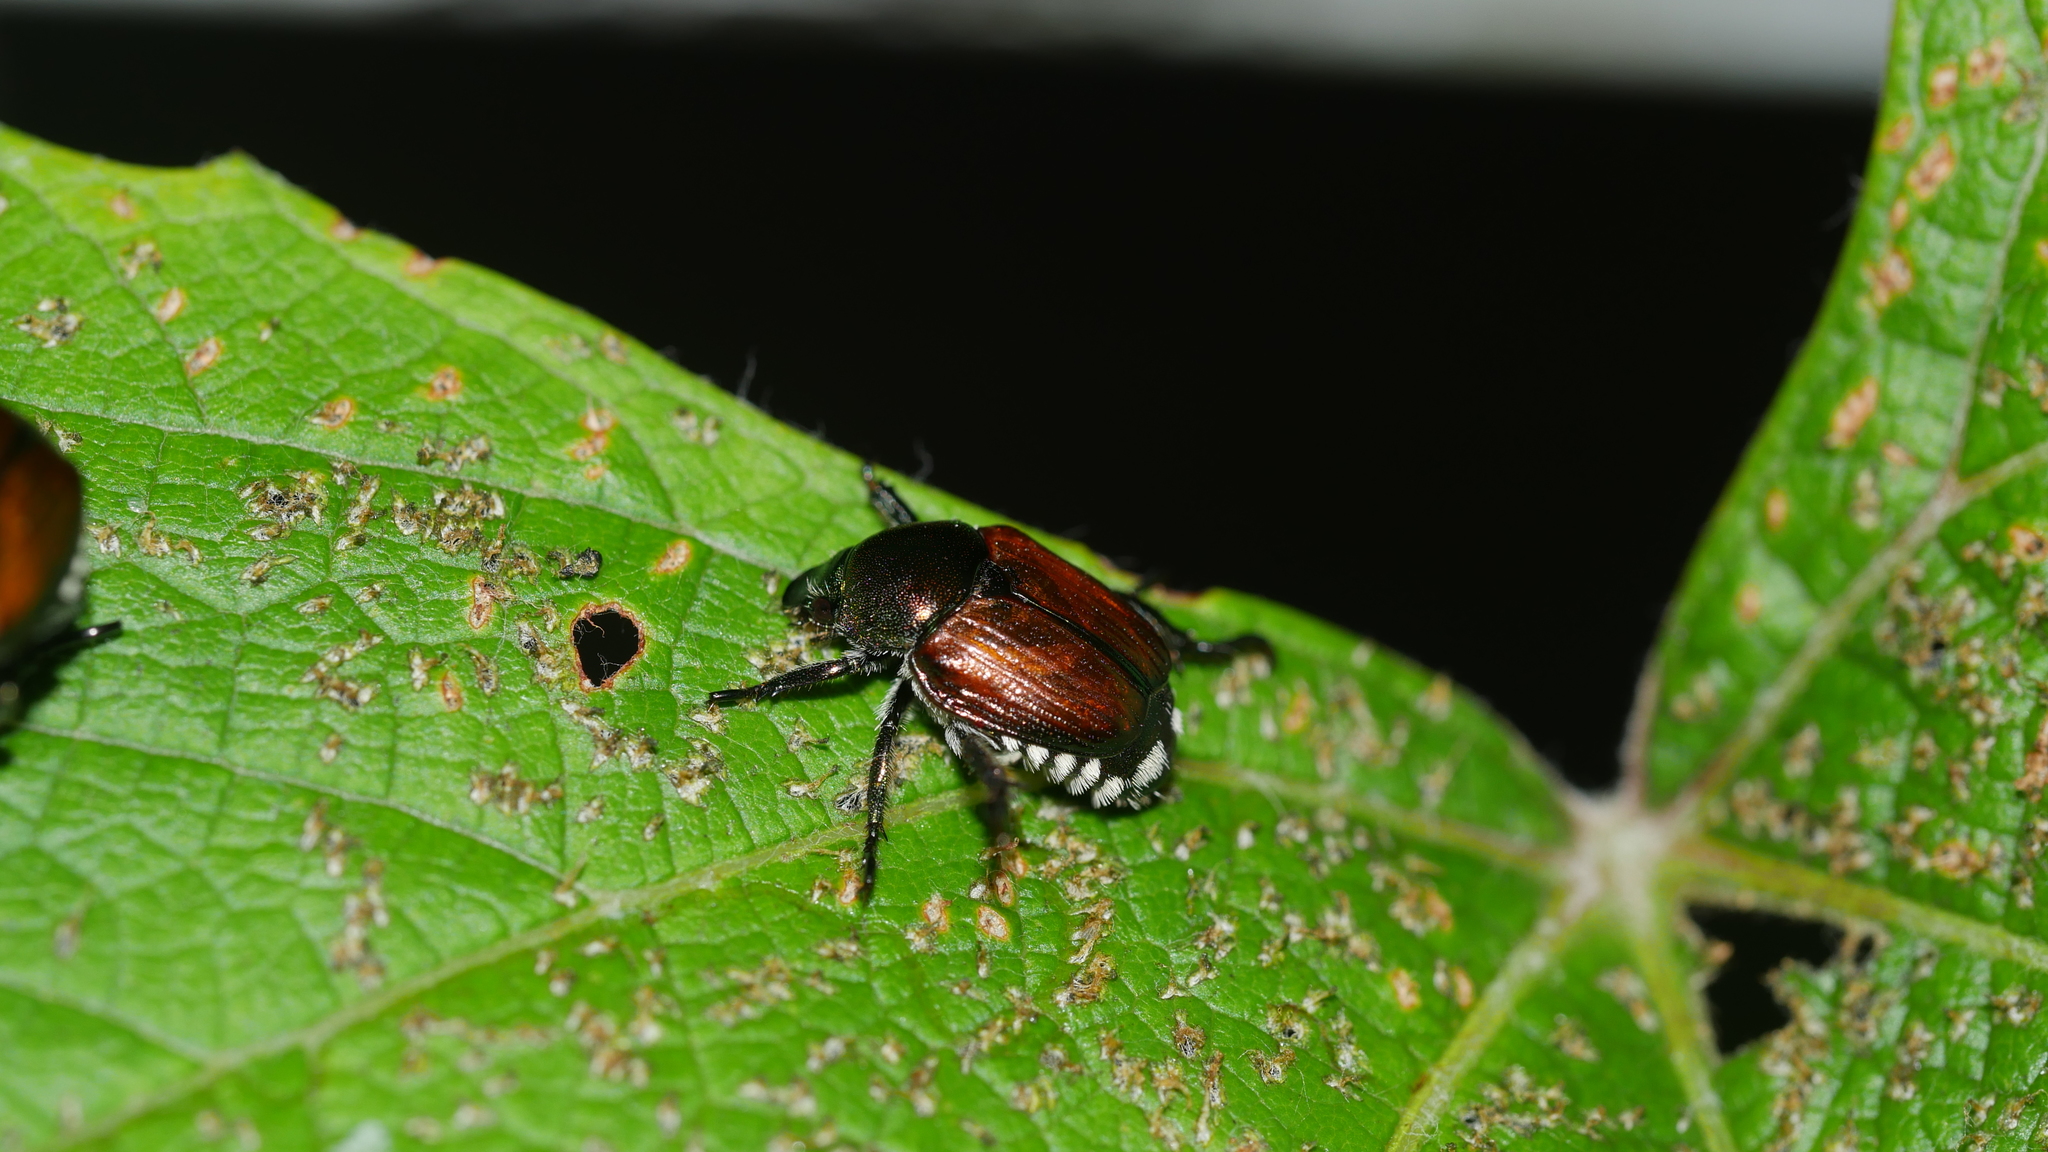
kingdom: Animalia
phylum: Arthropoda
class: Insecta
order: Coleoptera
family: Scarabaeidae
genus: Popillia
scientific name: Popillia japonica
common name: Japanese beetle
